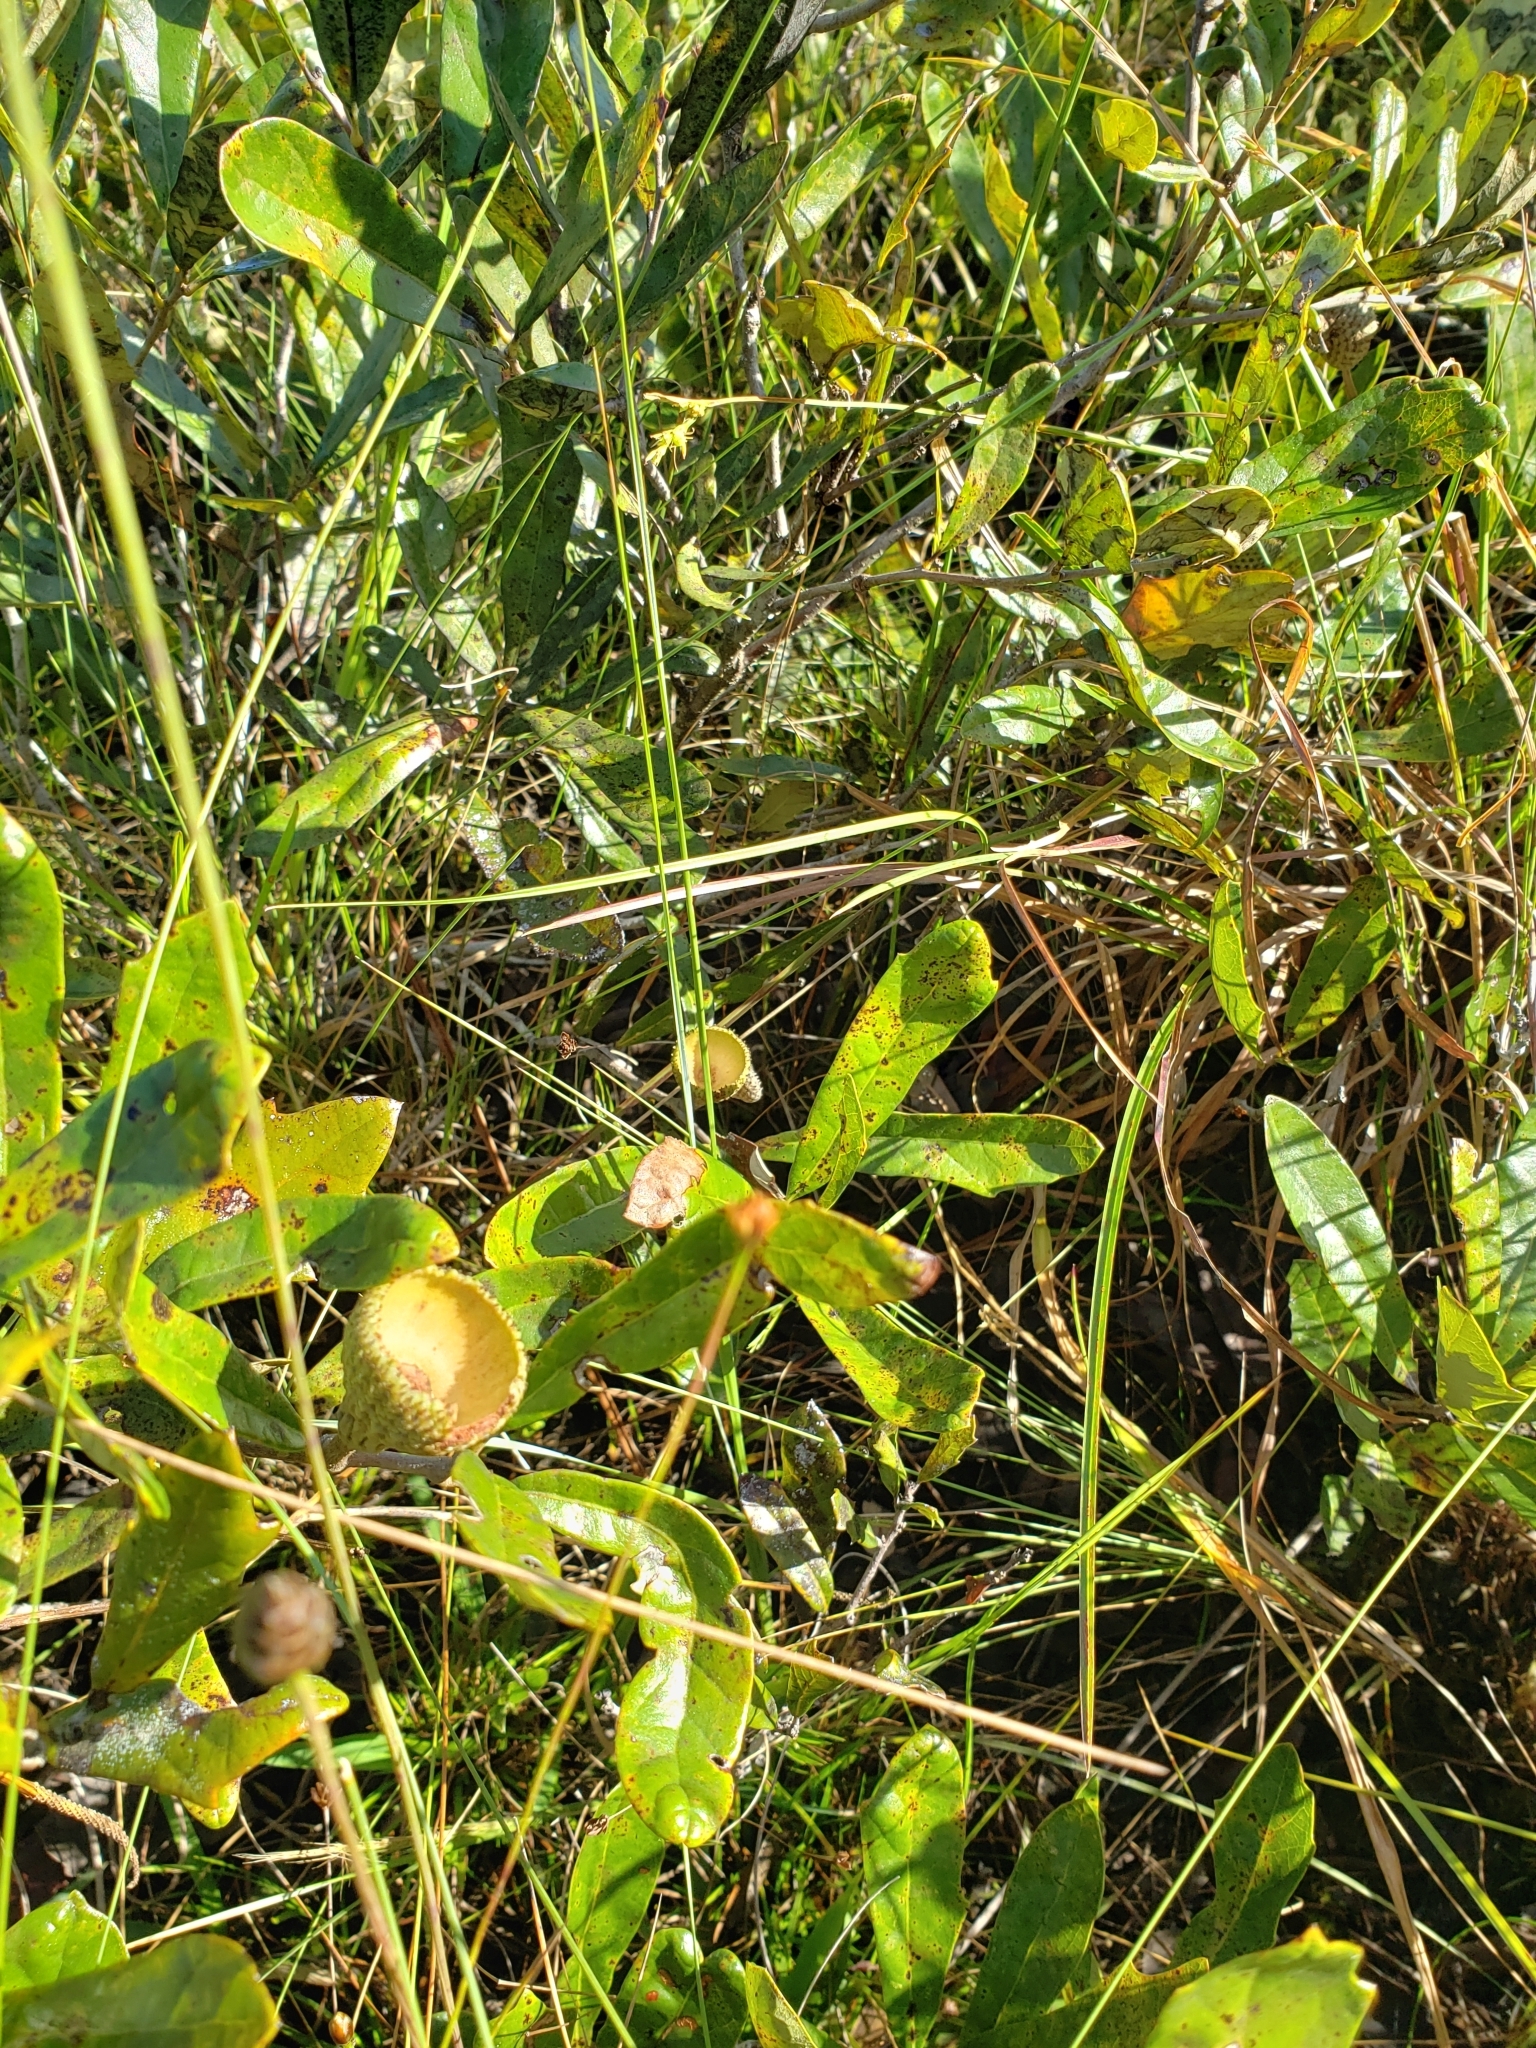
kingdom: Plantae
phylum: Tracheophyta
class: Magnoliopsida
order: Fagales
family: Fagaceae
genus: Quercus
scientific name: Quercus minima
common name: Dwarf live oak
